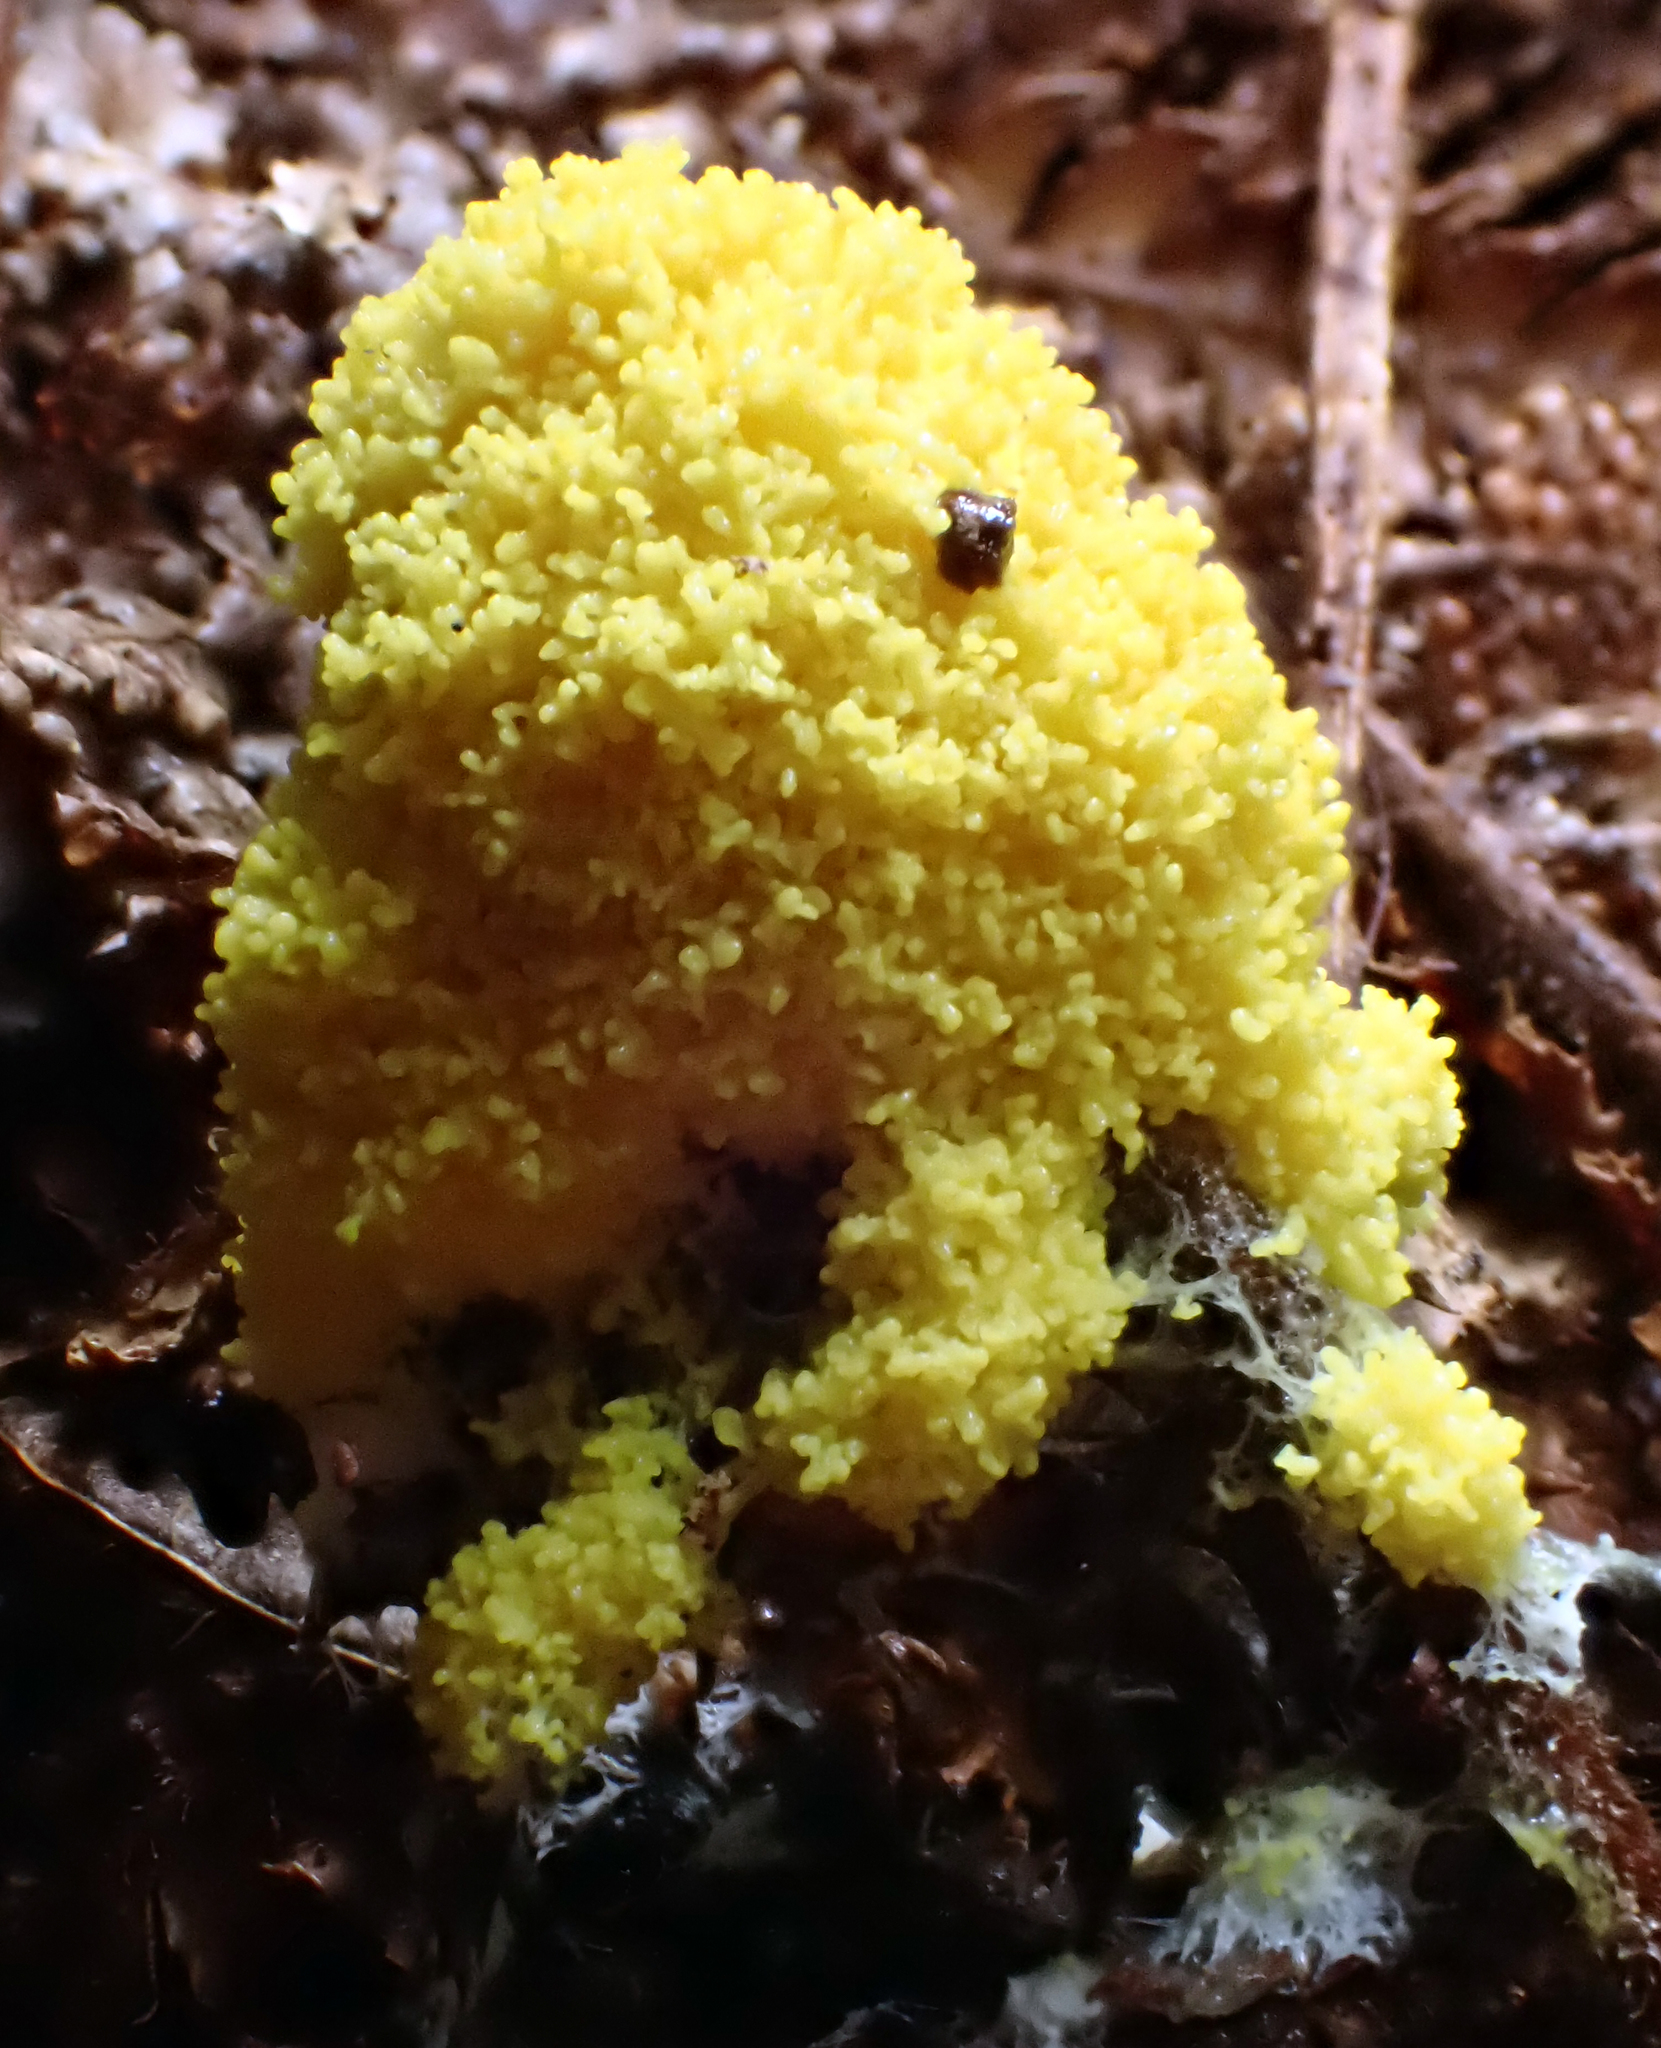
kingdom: Protozoa
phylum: Mycetozoa
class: Myxomycetes
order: Physarales
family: Physaraceae
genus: Fuligo
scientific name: Fuligo septica
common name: Dog vomit slime mold
